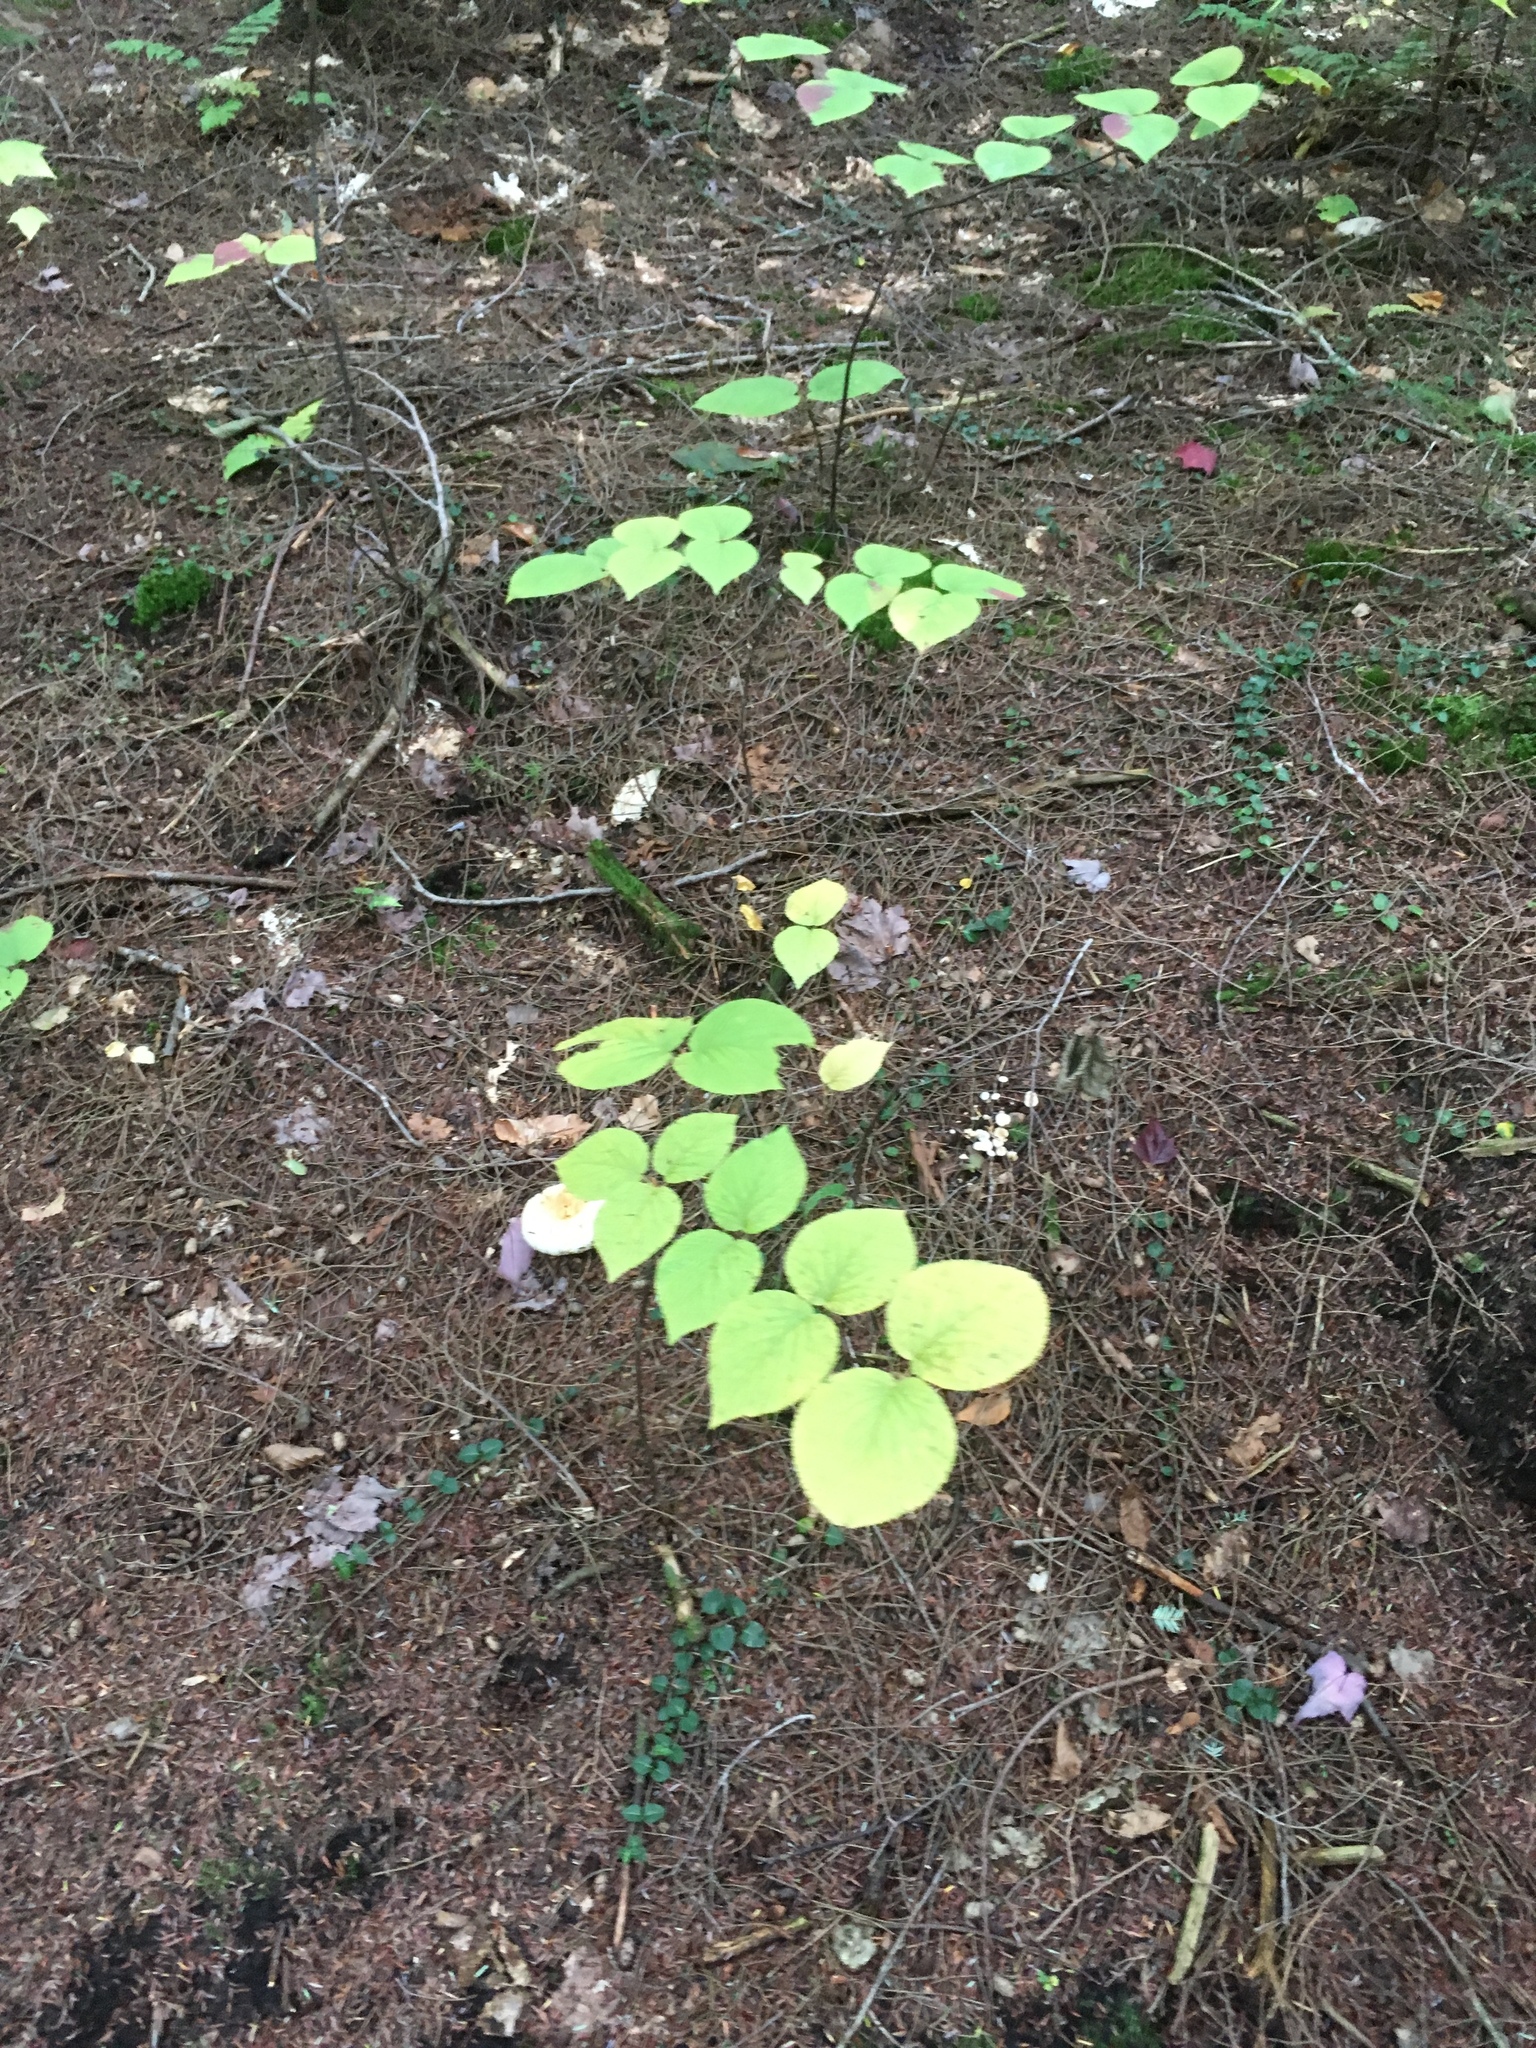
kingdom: Plantae
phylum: Tracheophyta
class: Magnoliopsida
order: Dipsacales
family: Viburnaceae
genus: Viburnum
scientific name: Viburnum lantanoides
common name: Hobblebush
